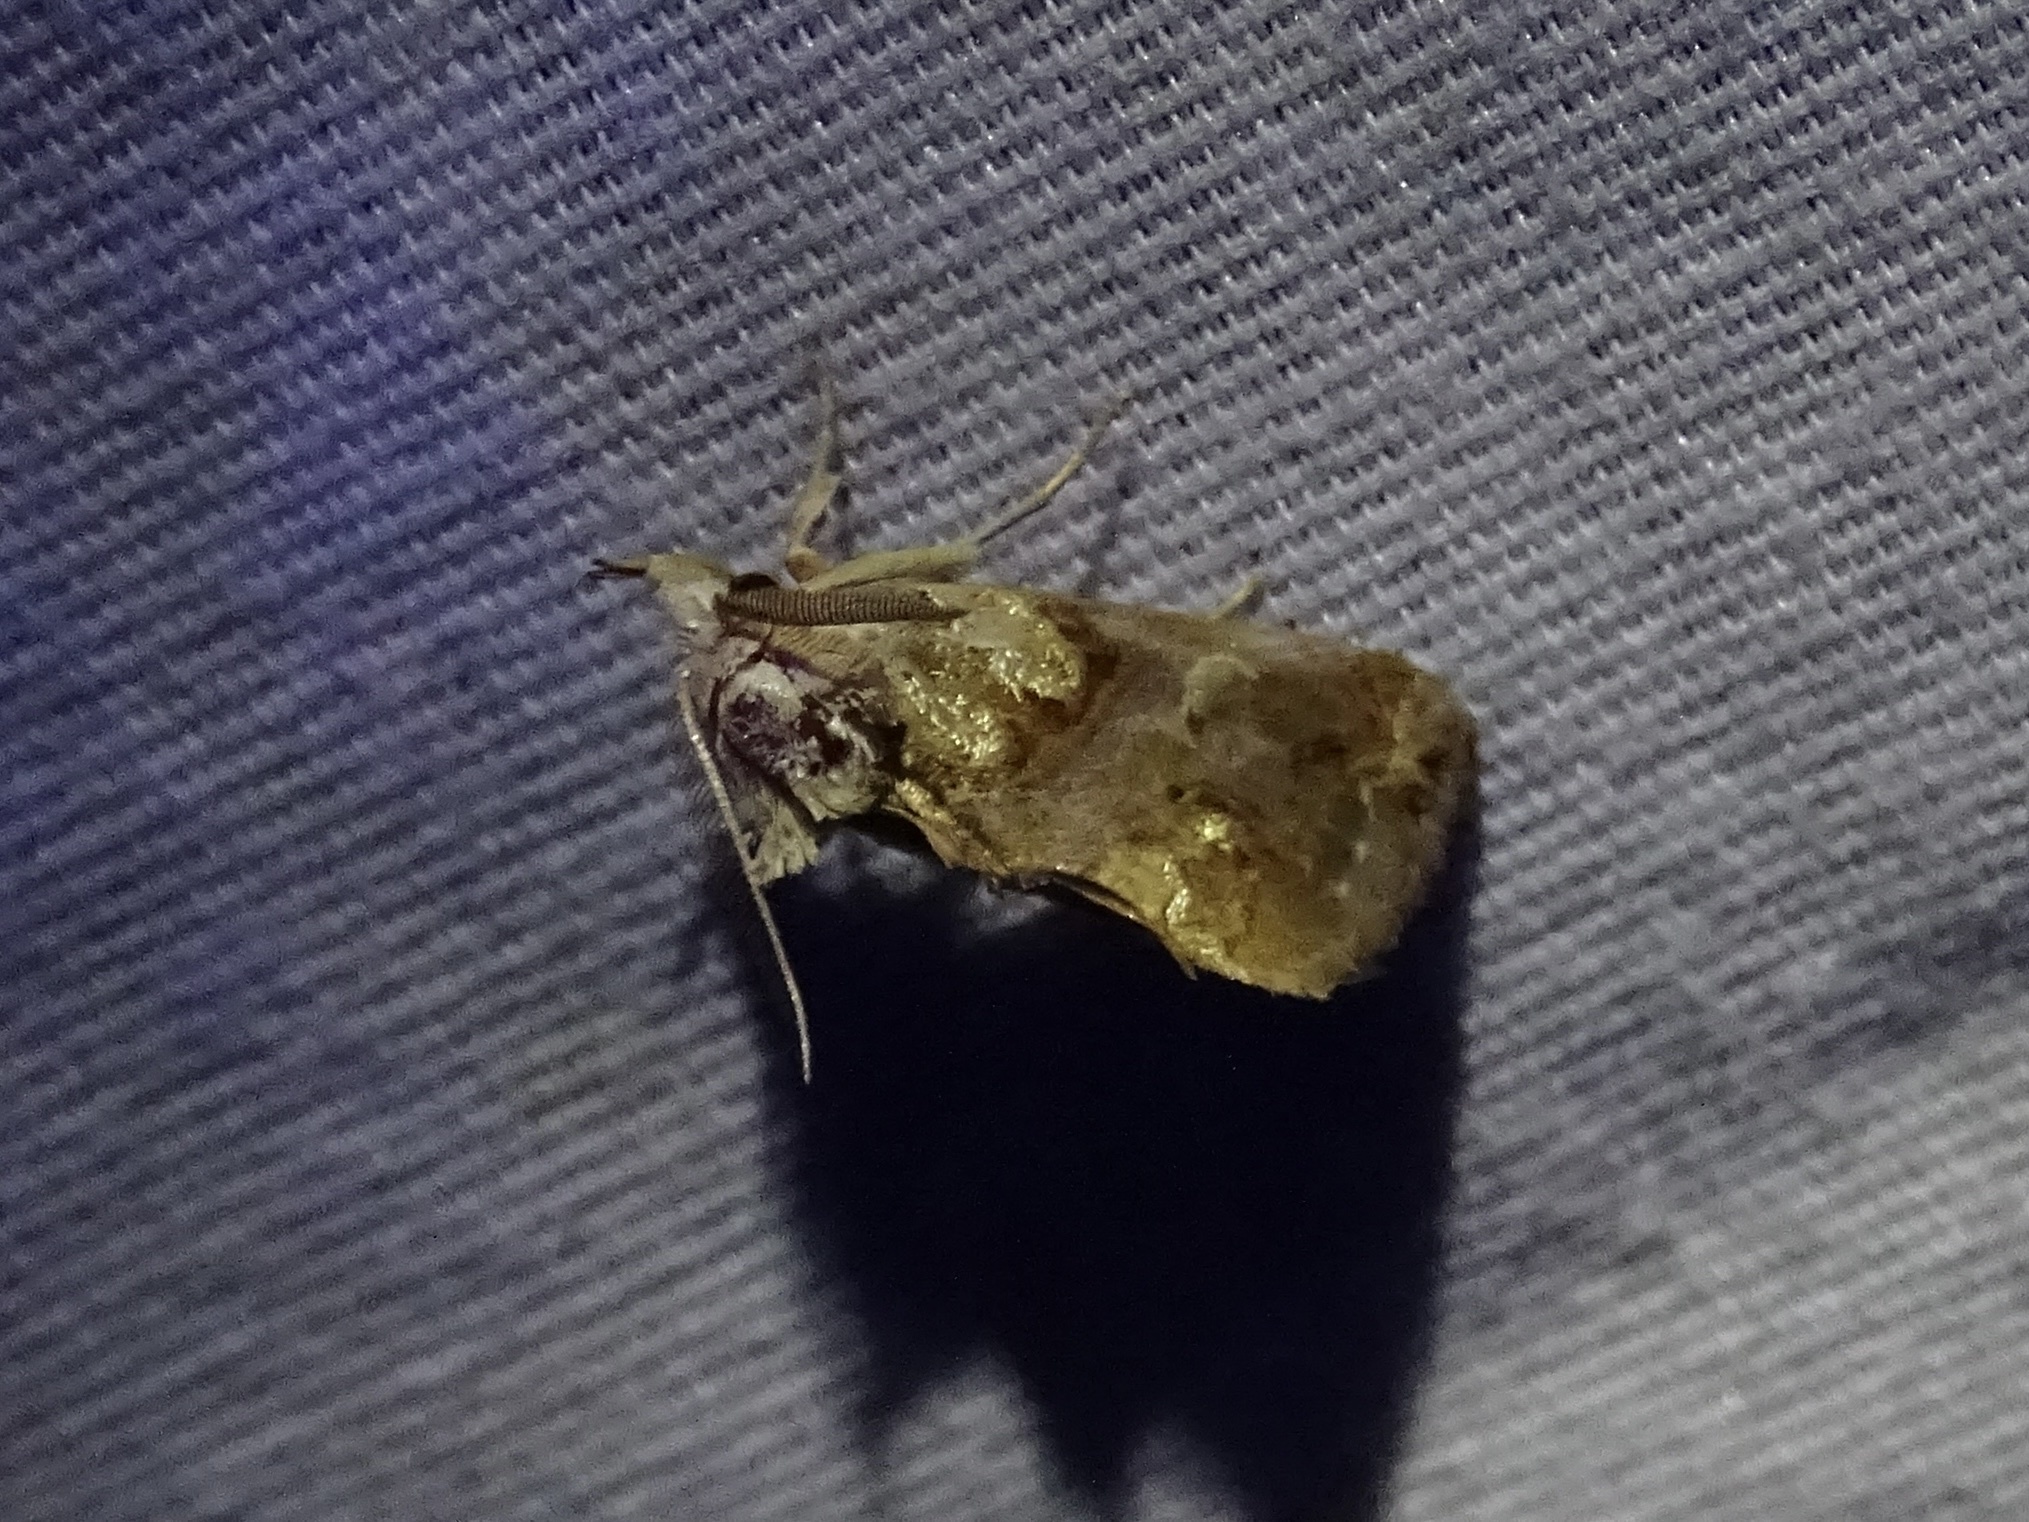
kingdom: Animalia
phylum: Arthropoda
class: Insecta
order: Lepidoptera
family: Erebidae
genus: Plusiodonta
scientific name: Plusiodonta compressipalpis
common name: Moonseed moth
